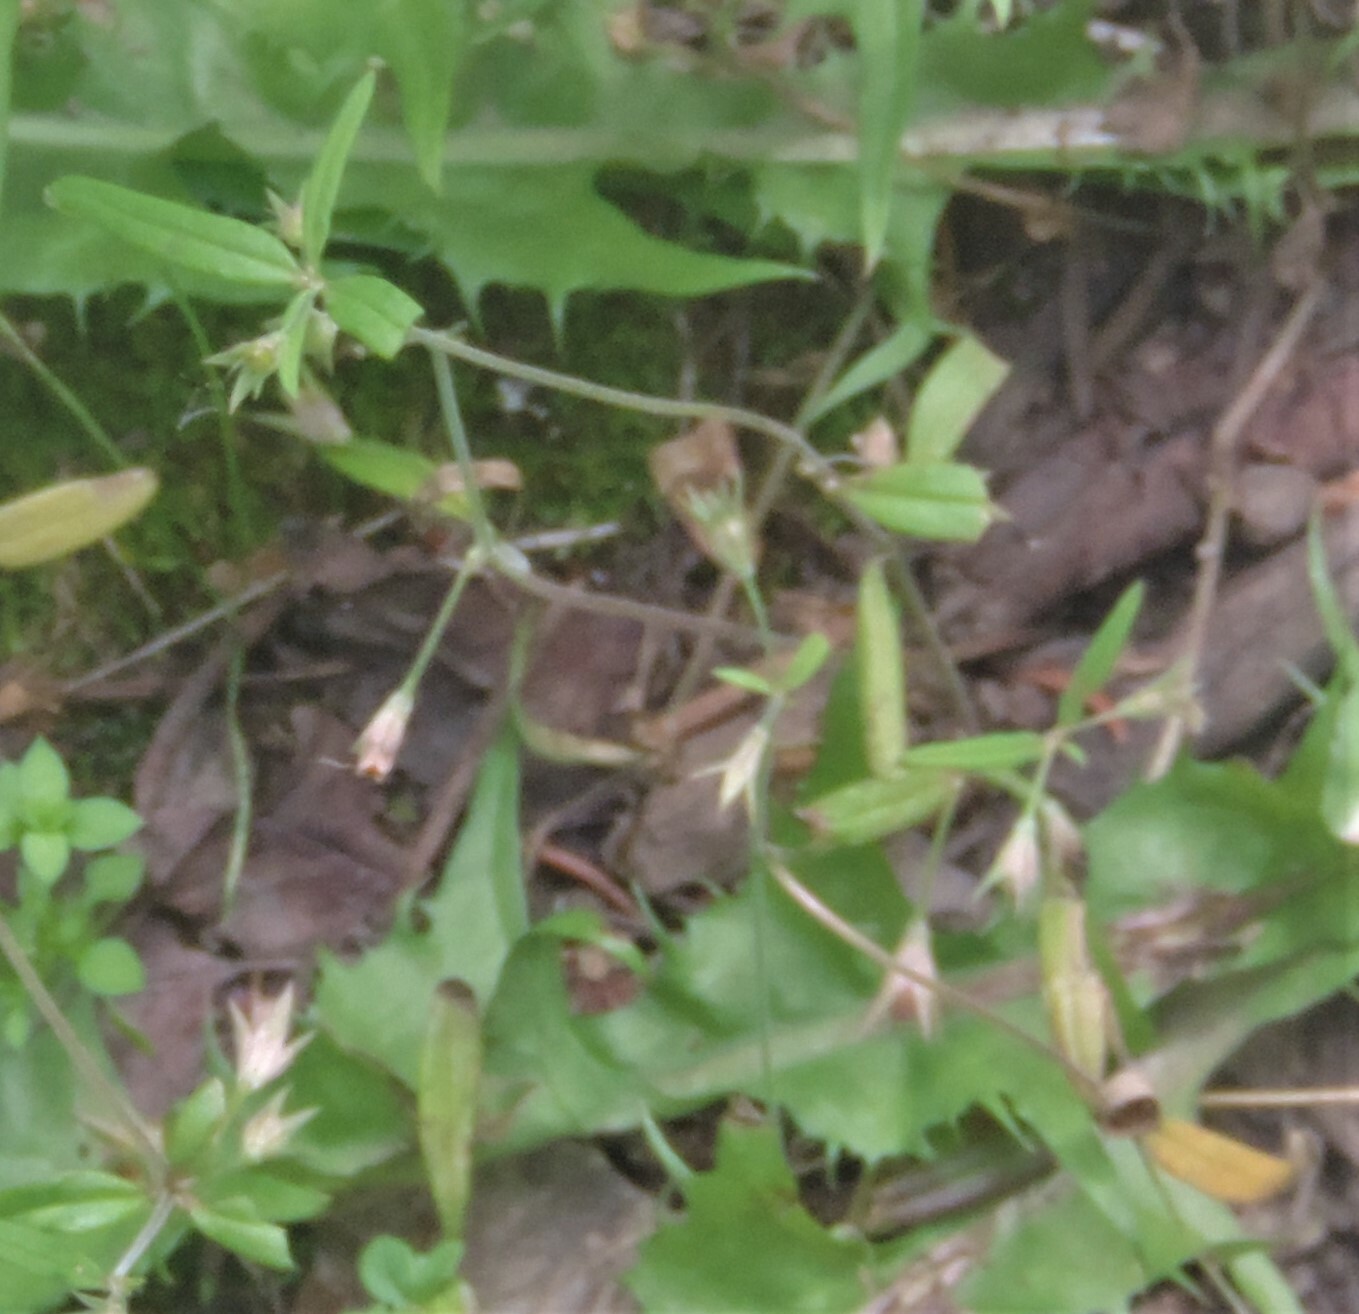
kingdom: Plantae
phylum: Tracheophyta
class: Magnoliopsida
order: Lamiales
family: Plantaginaceae
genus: Collinsia
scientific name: Collinsia parviflora
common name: Blue-lips
